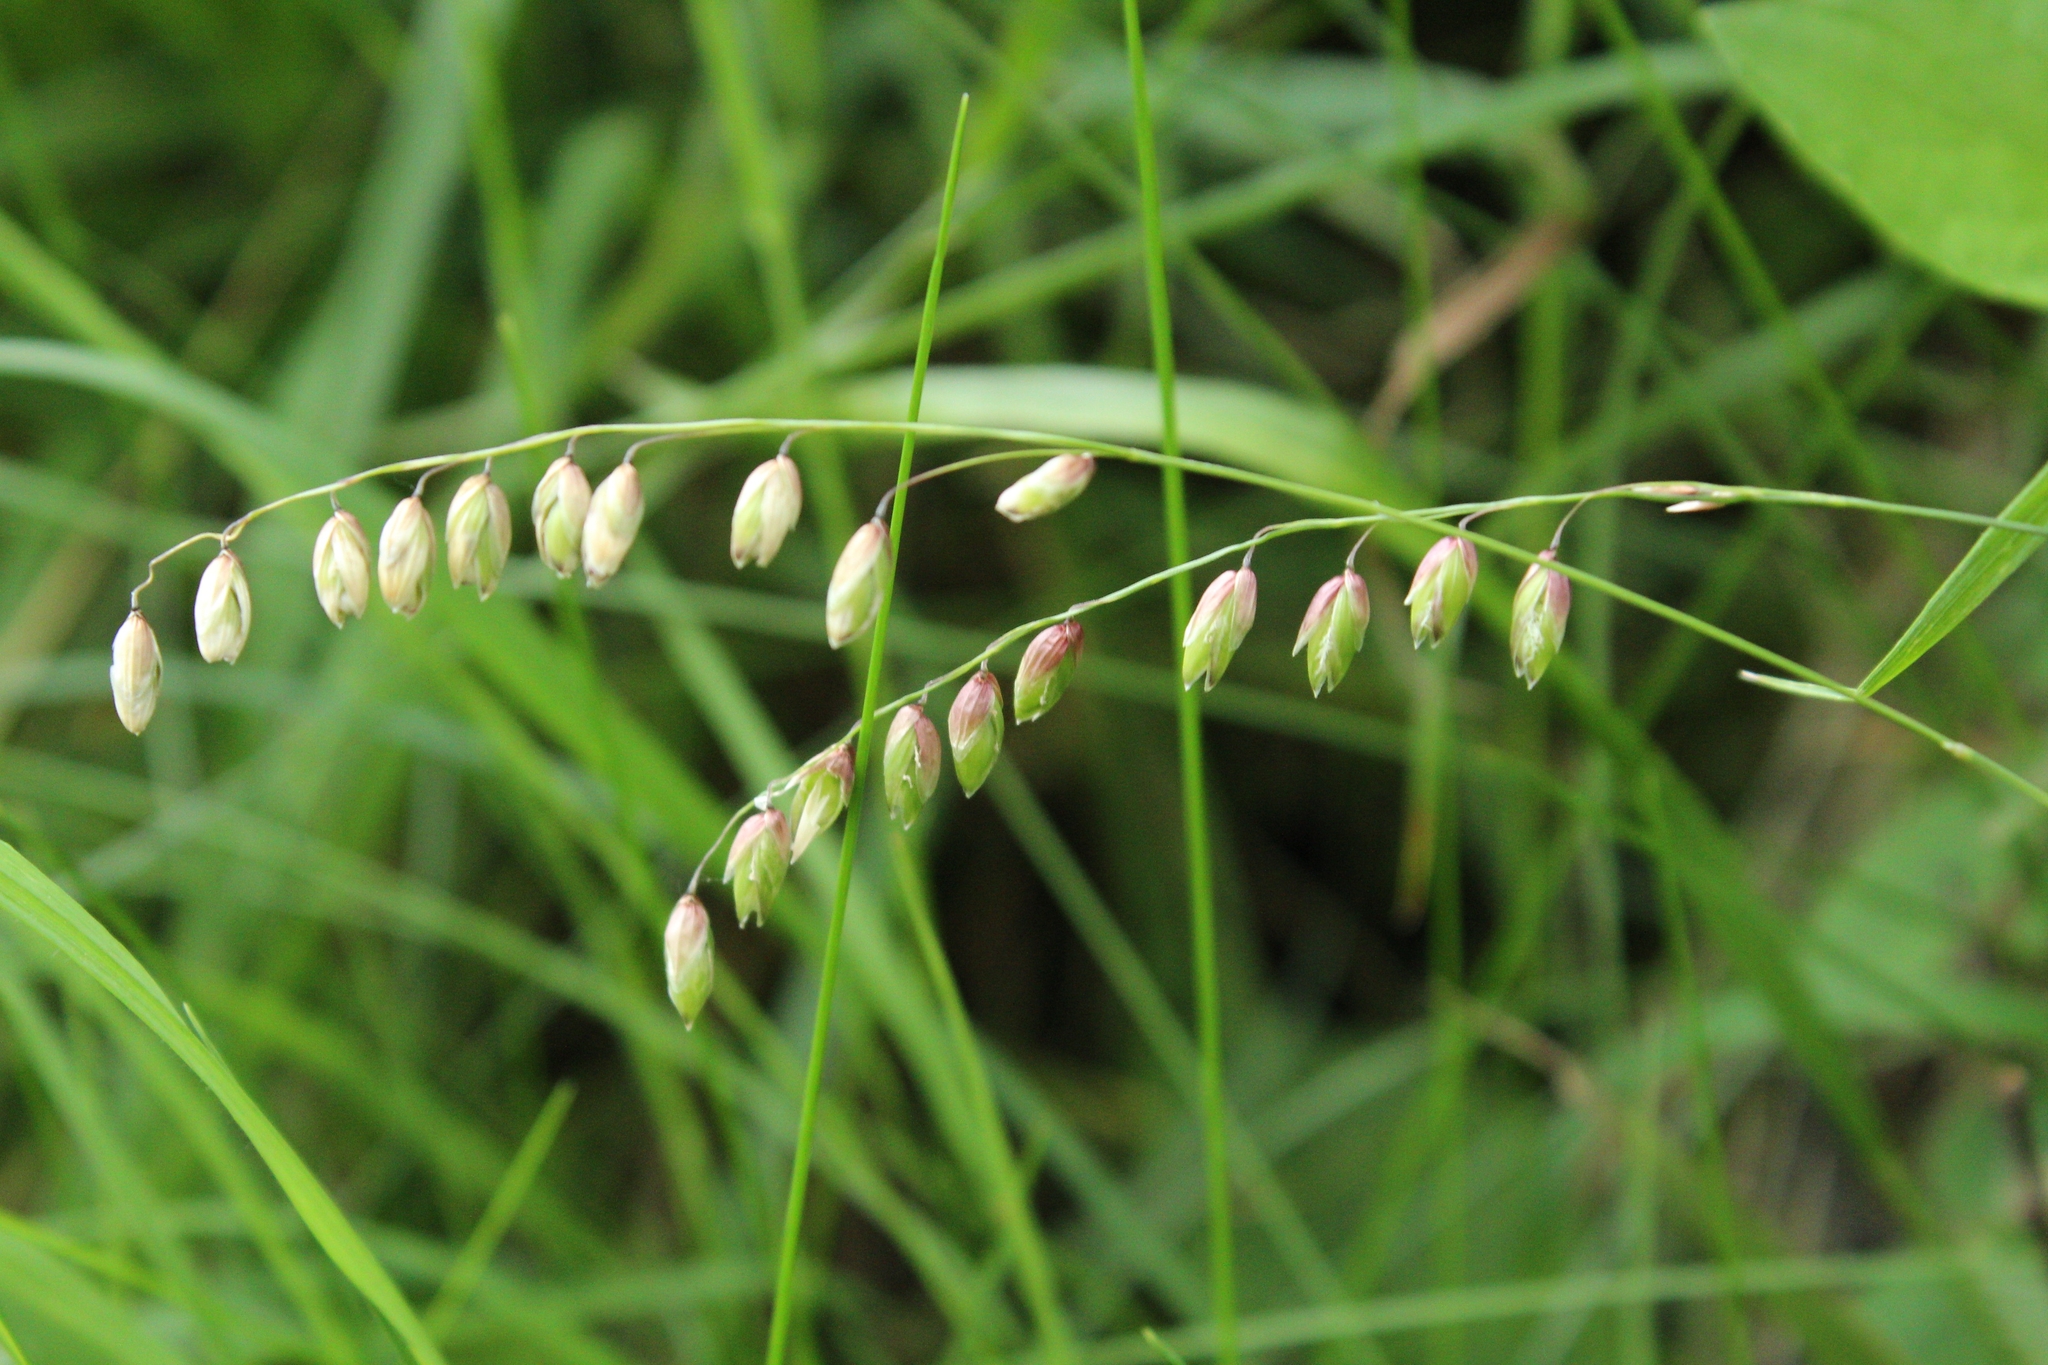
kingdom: Plantae
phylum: Tracheophyta
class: Liliopsida
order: Poales
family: Poaceae
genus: Melica
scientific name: Melica nutans
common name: Mountain melick
